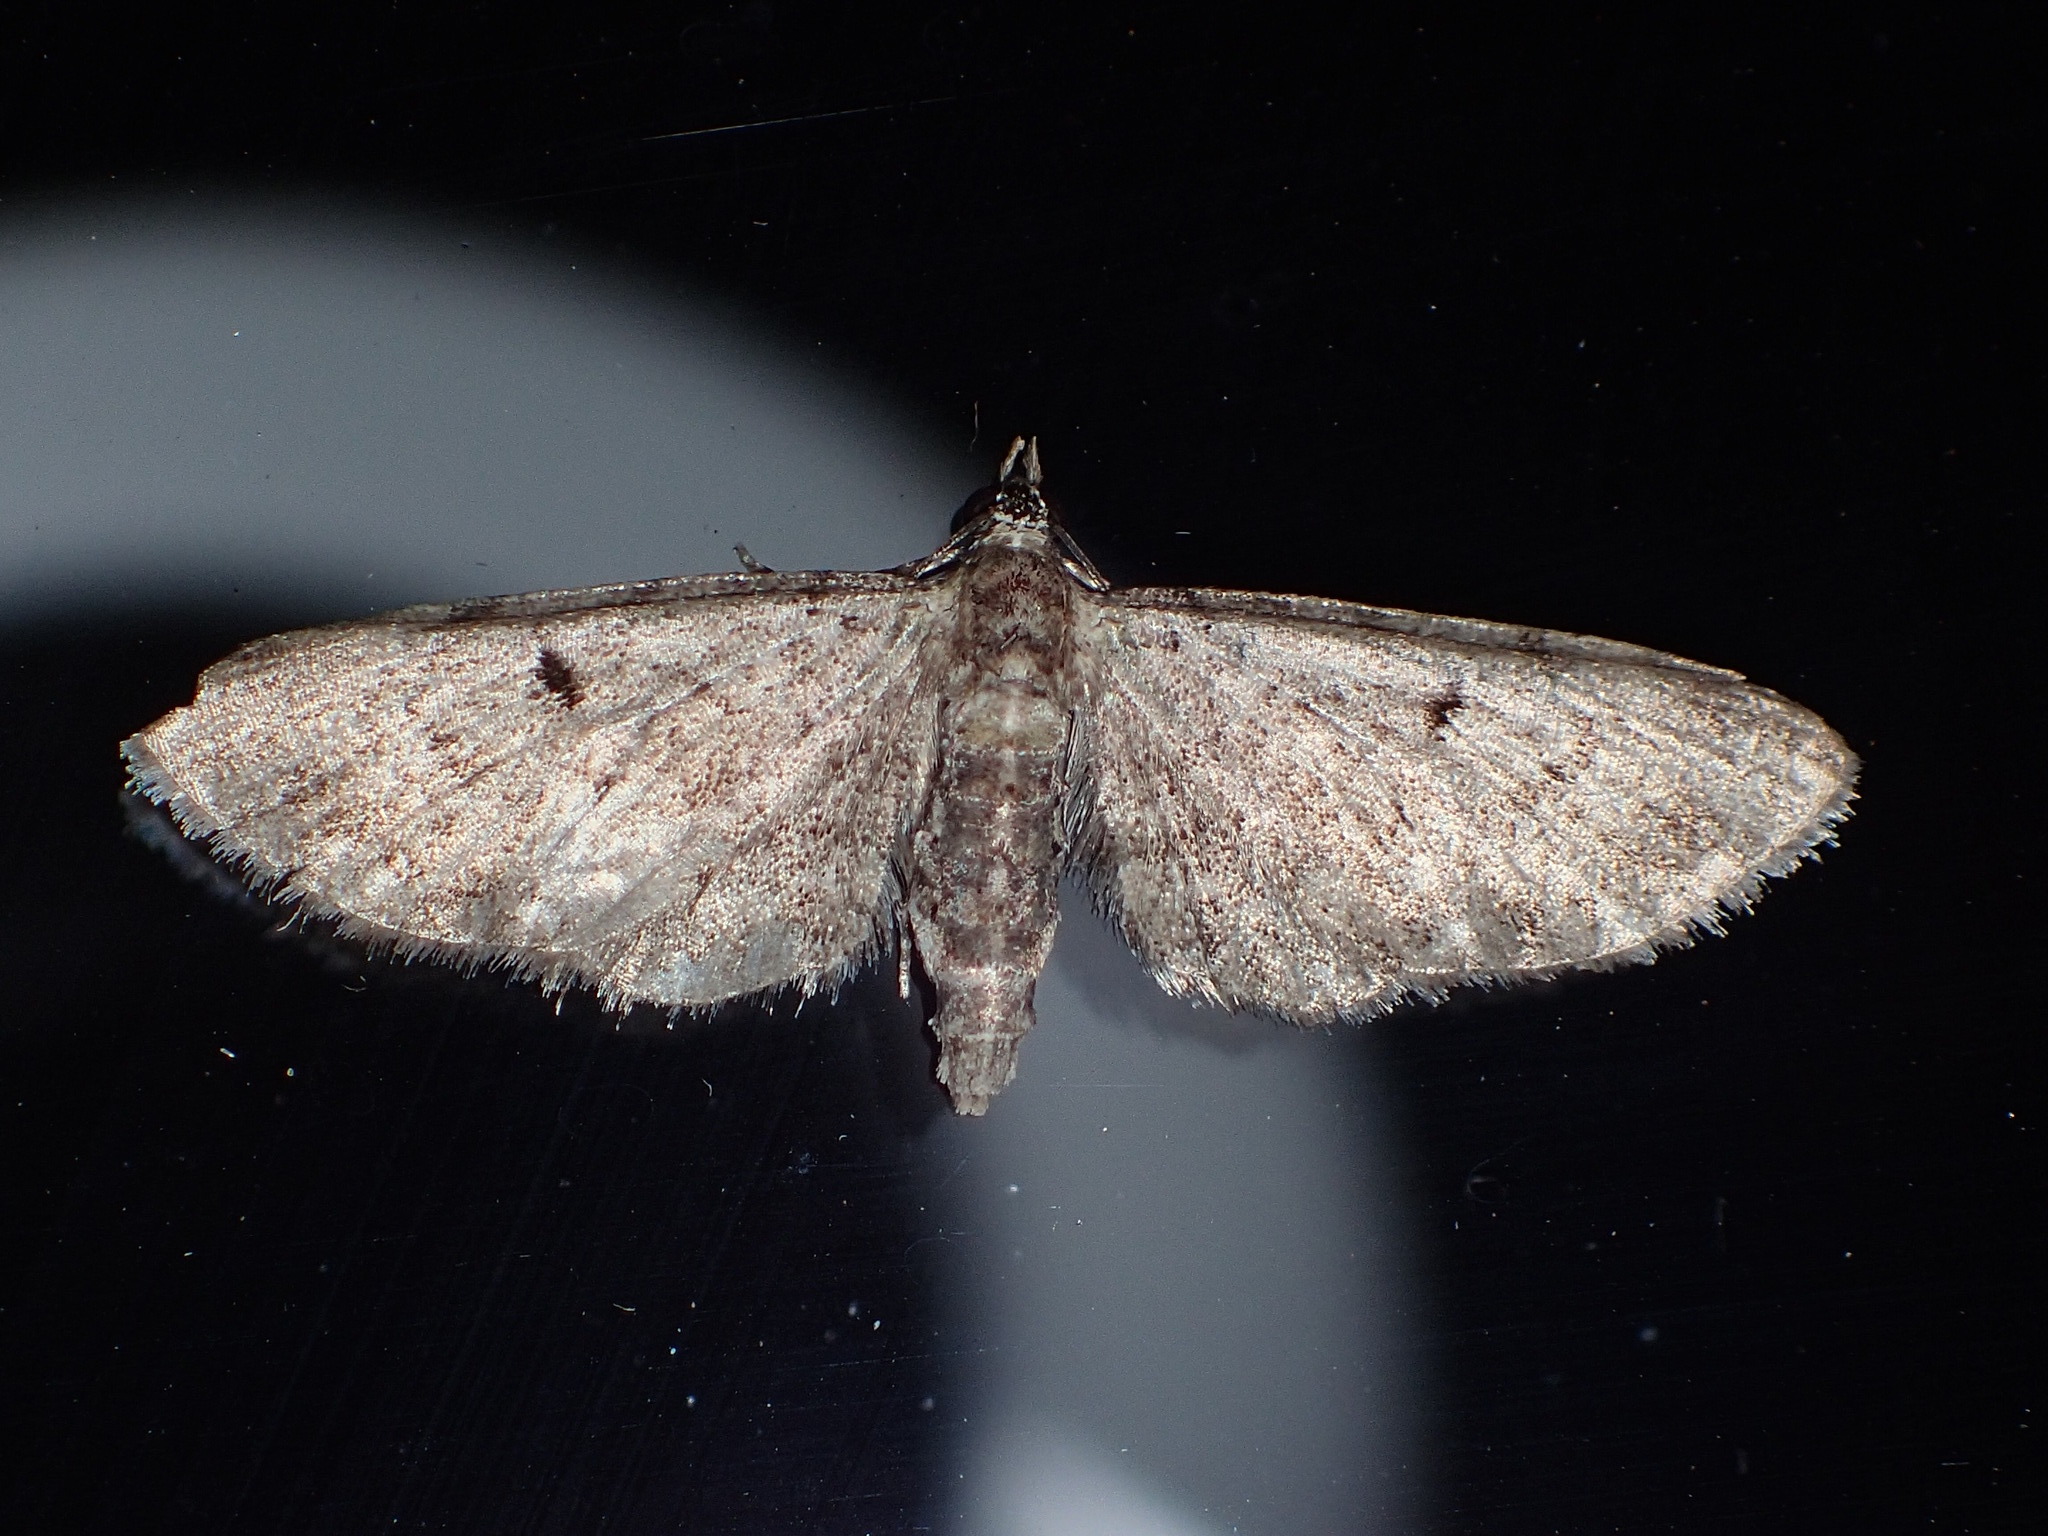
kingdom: Animalia
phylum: Arthropoda
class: Insecta
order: Lepidoptera
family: Geometridae
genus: Eupithecia
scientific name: Eupithecia miserulata
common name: Common eupithecia
